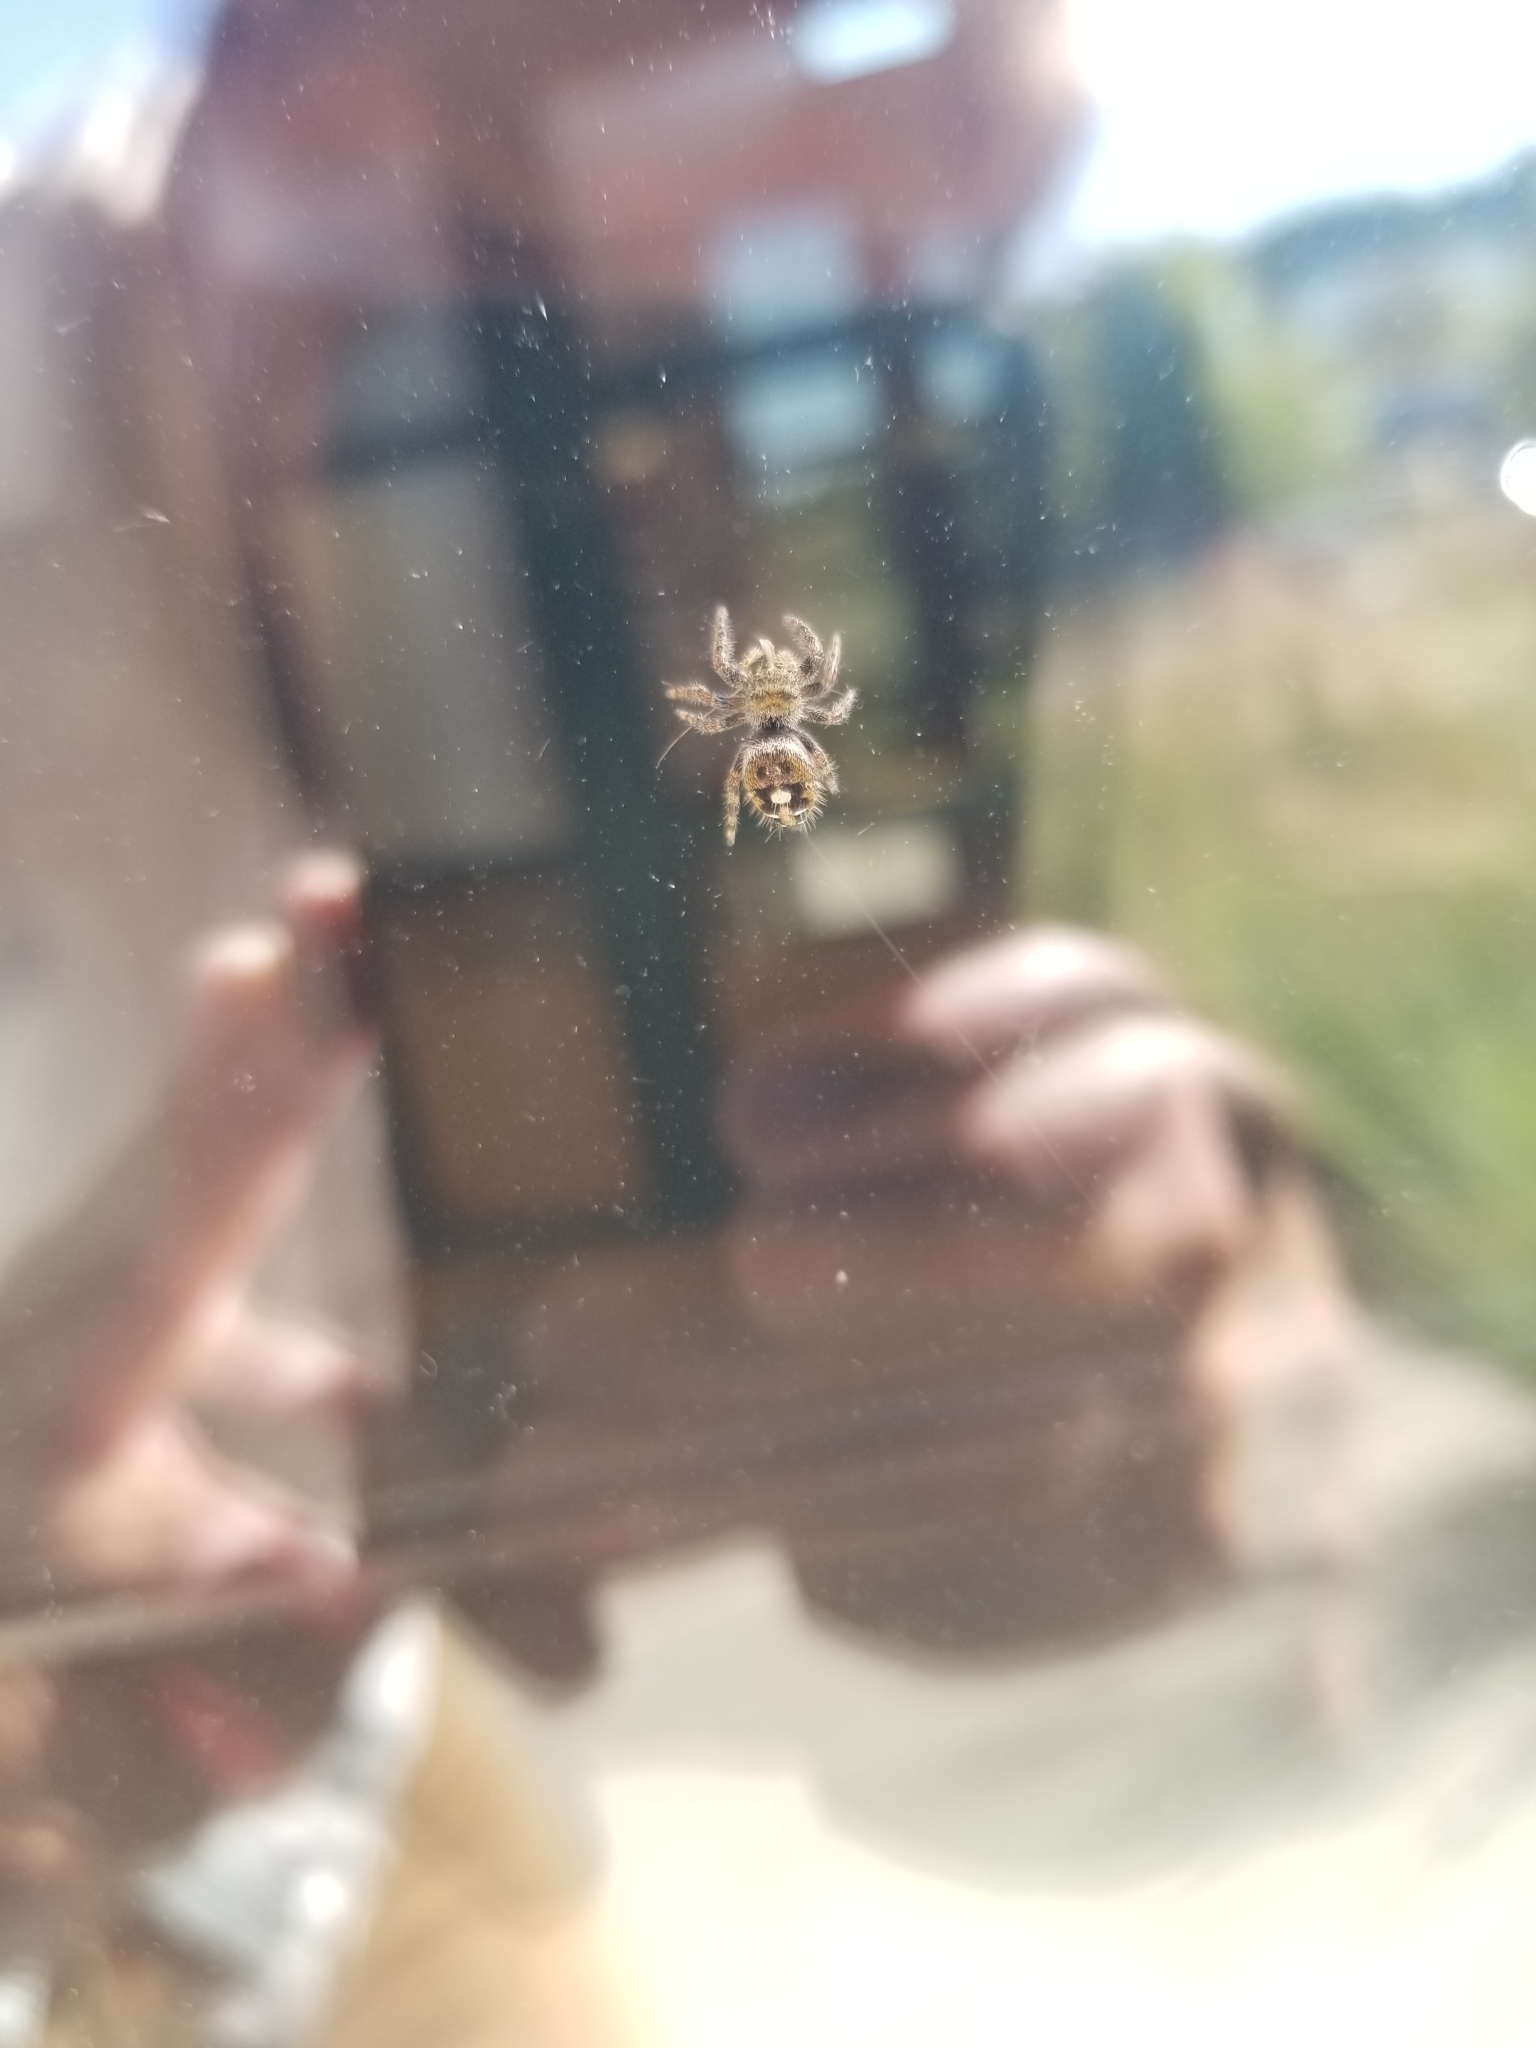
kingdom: Animalia
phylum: Arthropoda
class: Arachnida
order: Araneae
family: Salticidae
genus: Phidippus
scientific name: Phidippus audax
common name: Bold jumper
